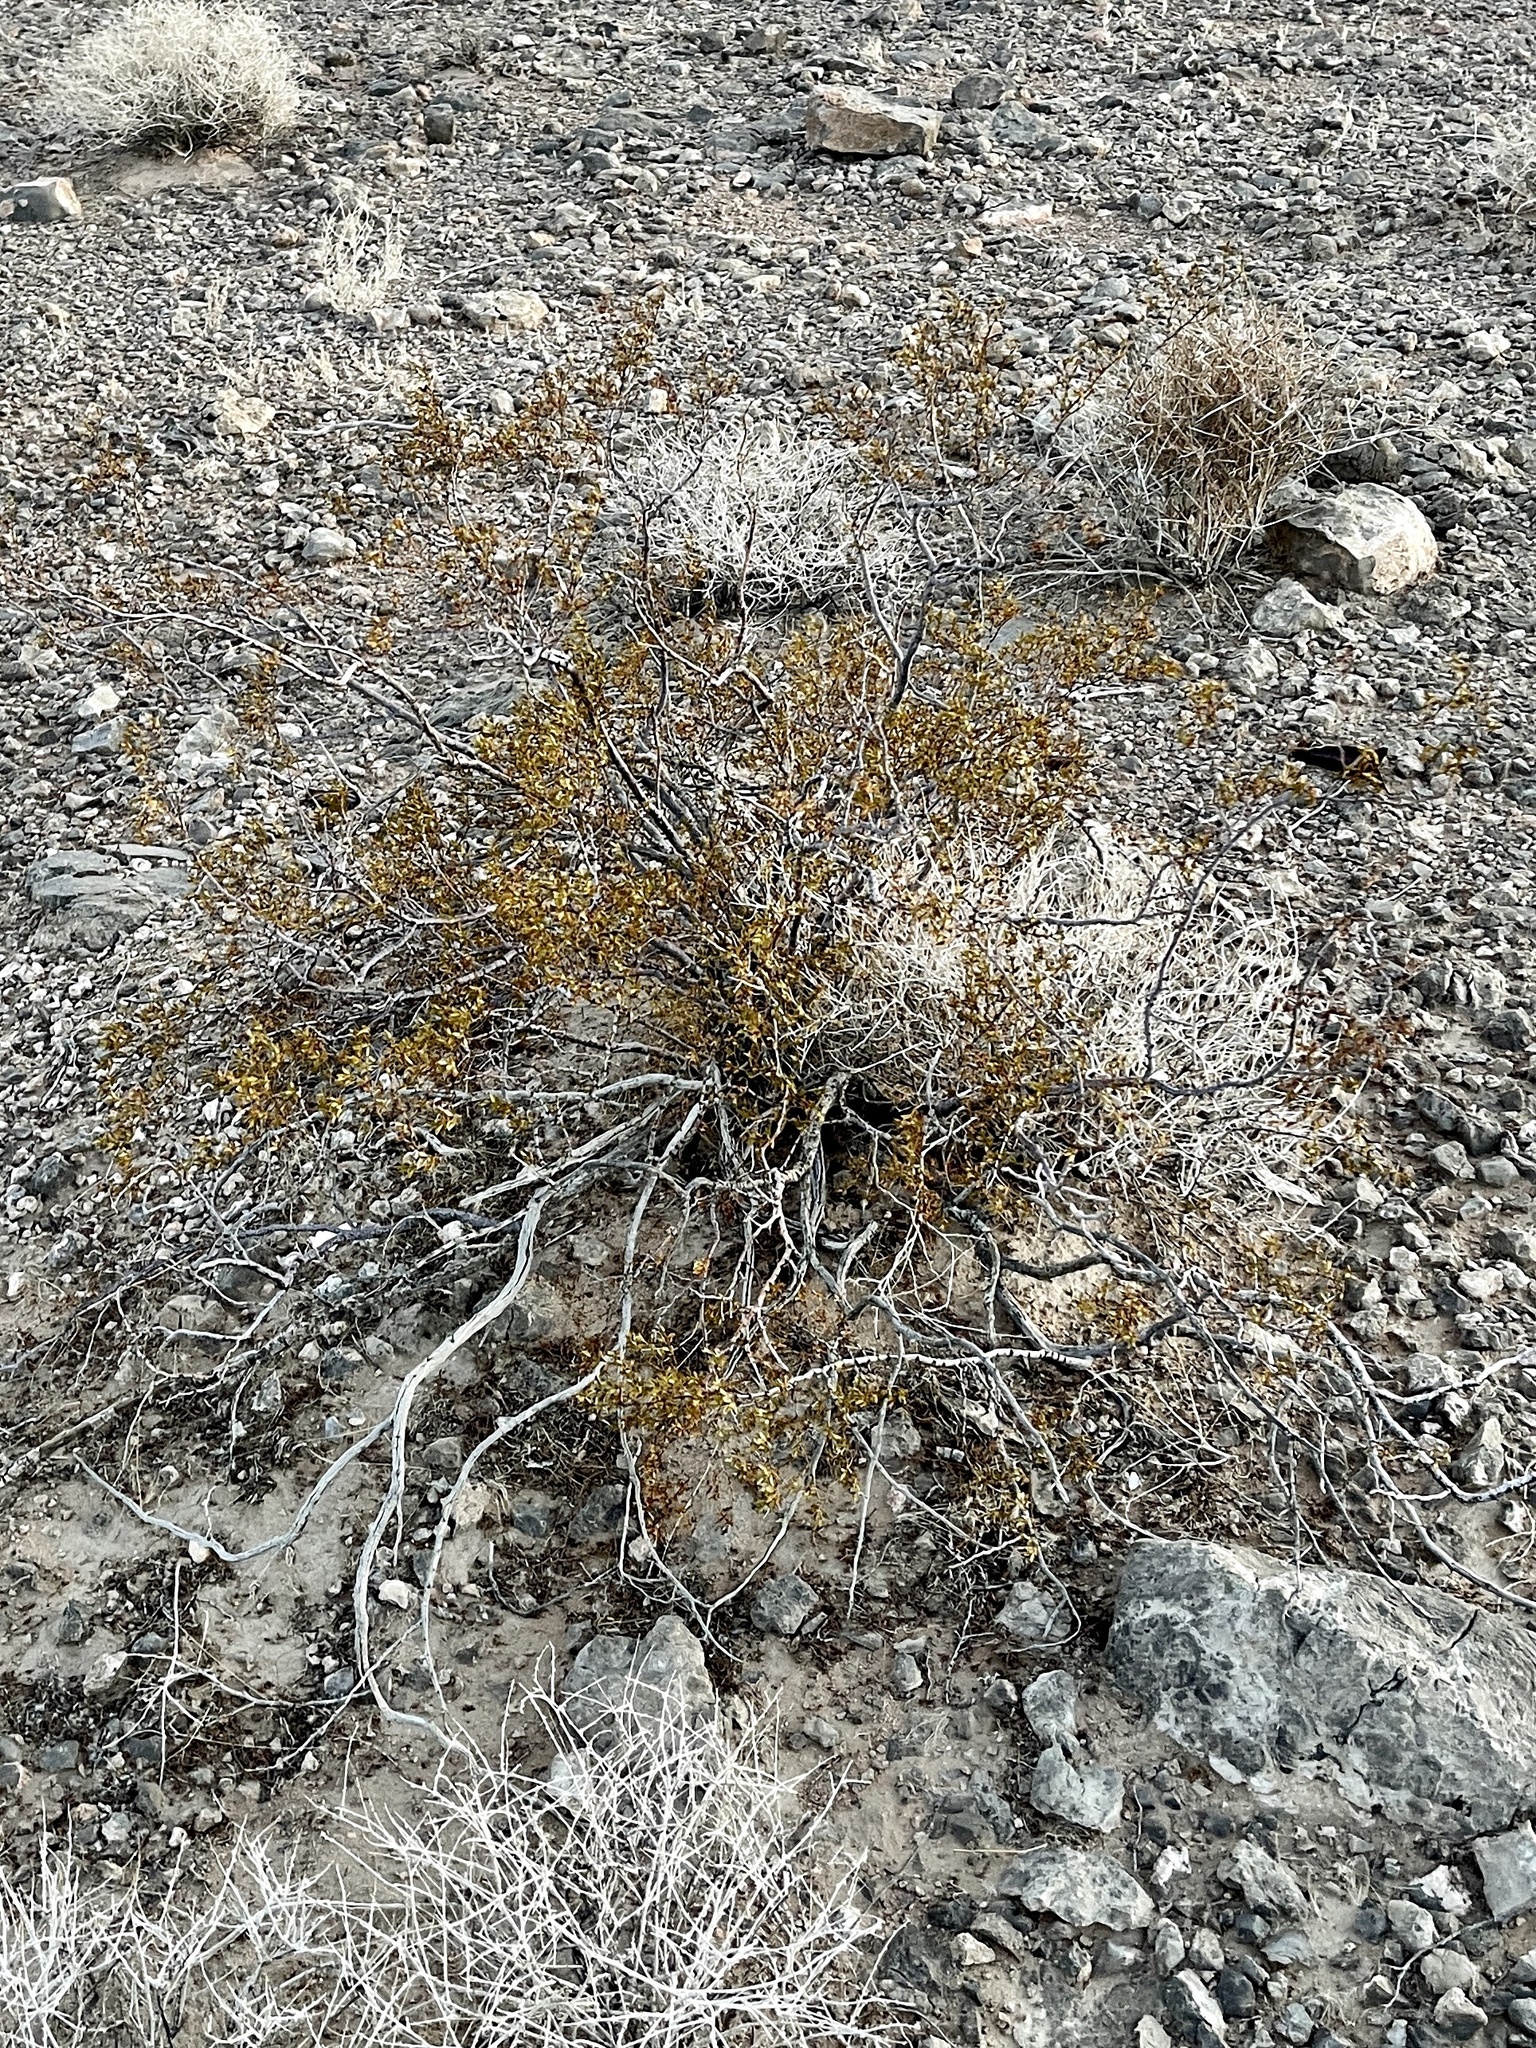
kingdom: Plantae
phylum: Tracheophyta
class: Magnoliopsida
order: Zygophyllales
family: Zygophyllaceae
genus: Larrea
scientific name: Larrea tridentata
